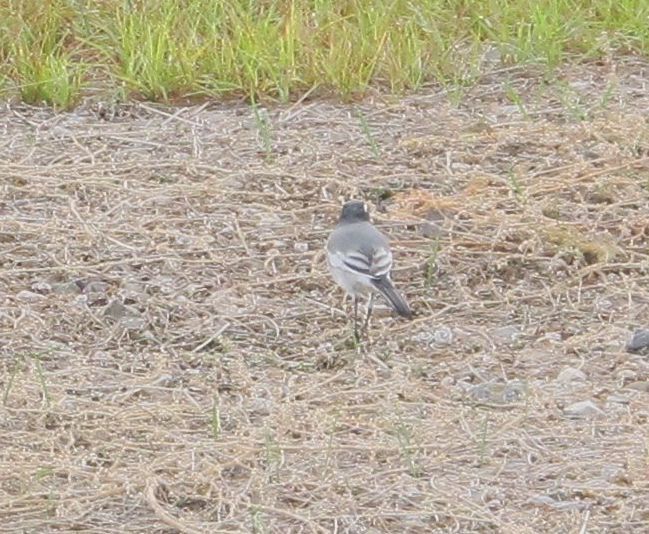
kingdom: Animalia
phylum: Chordata
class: Aves
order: Passeriformes
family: Motacillidae
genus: Motacilla
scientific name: Motacilla alba
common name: White wagtail
